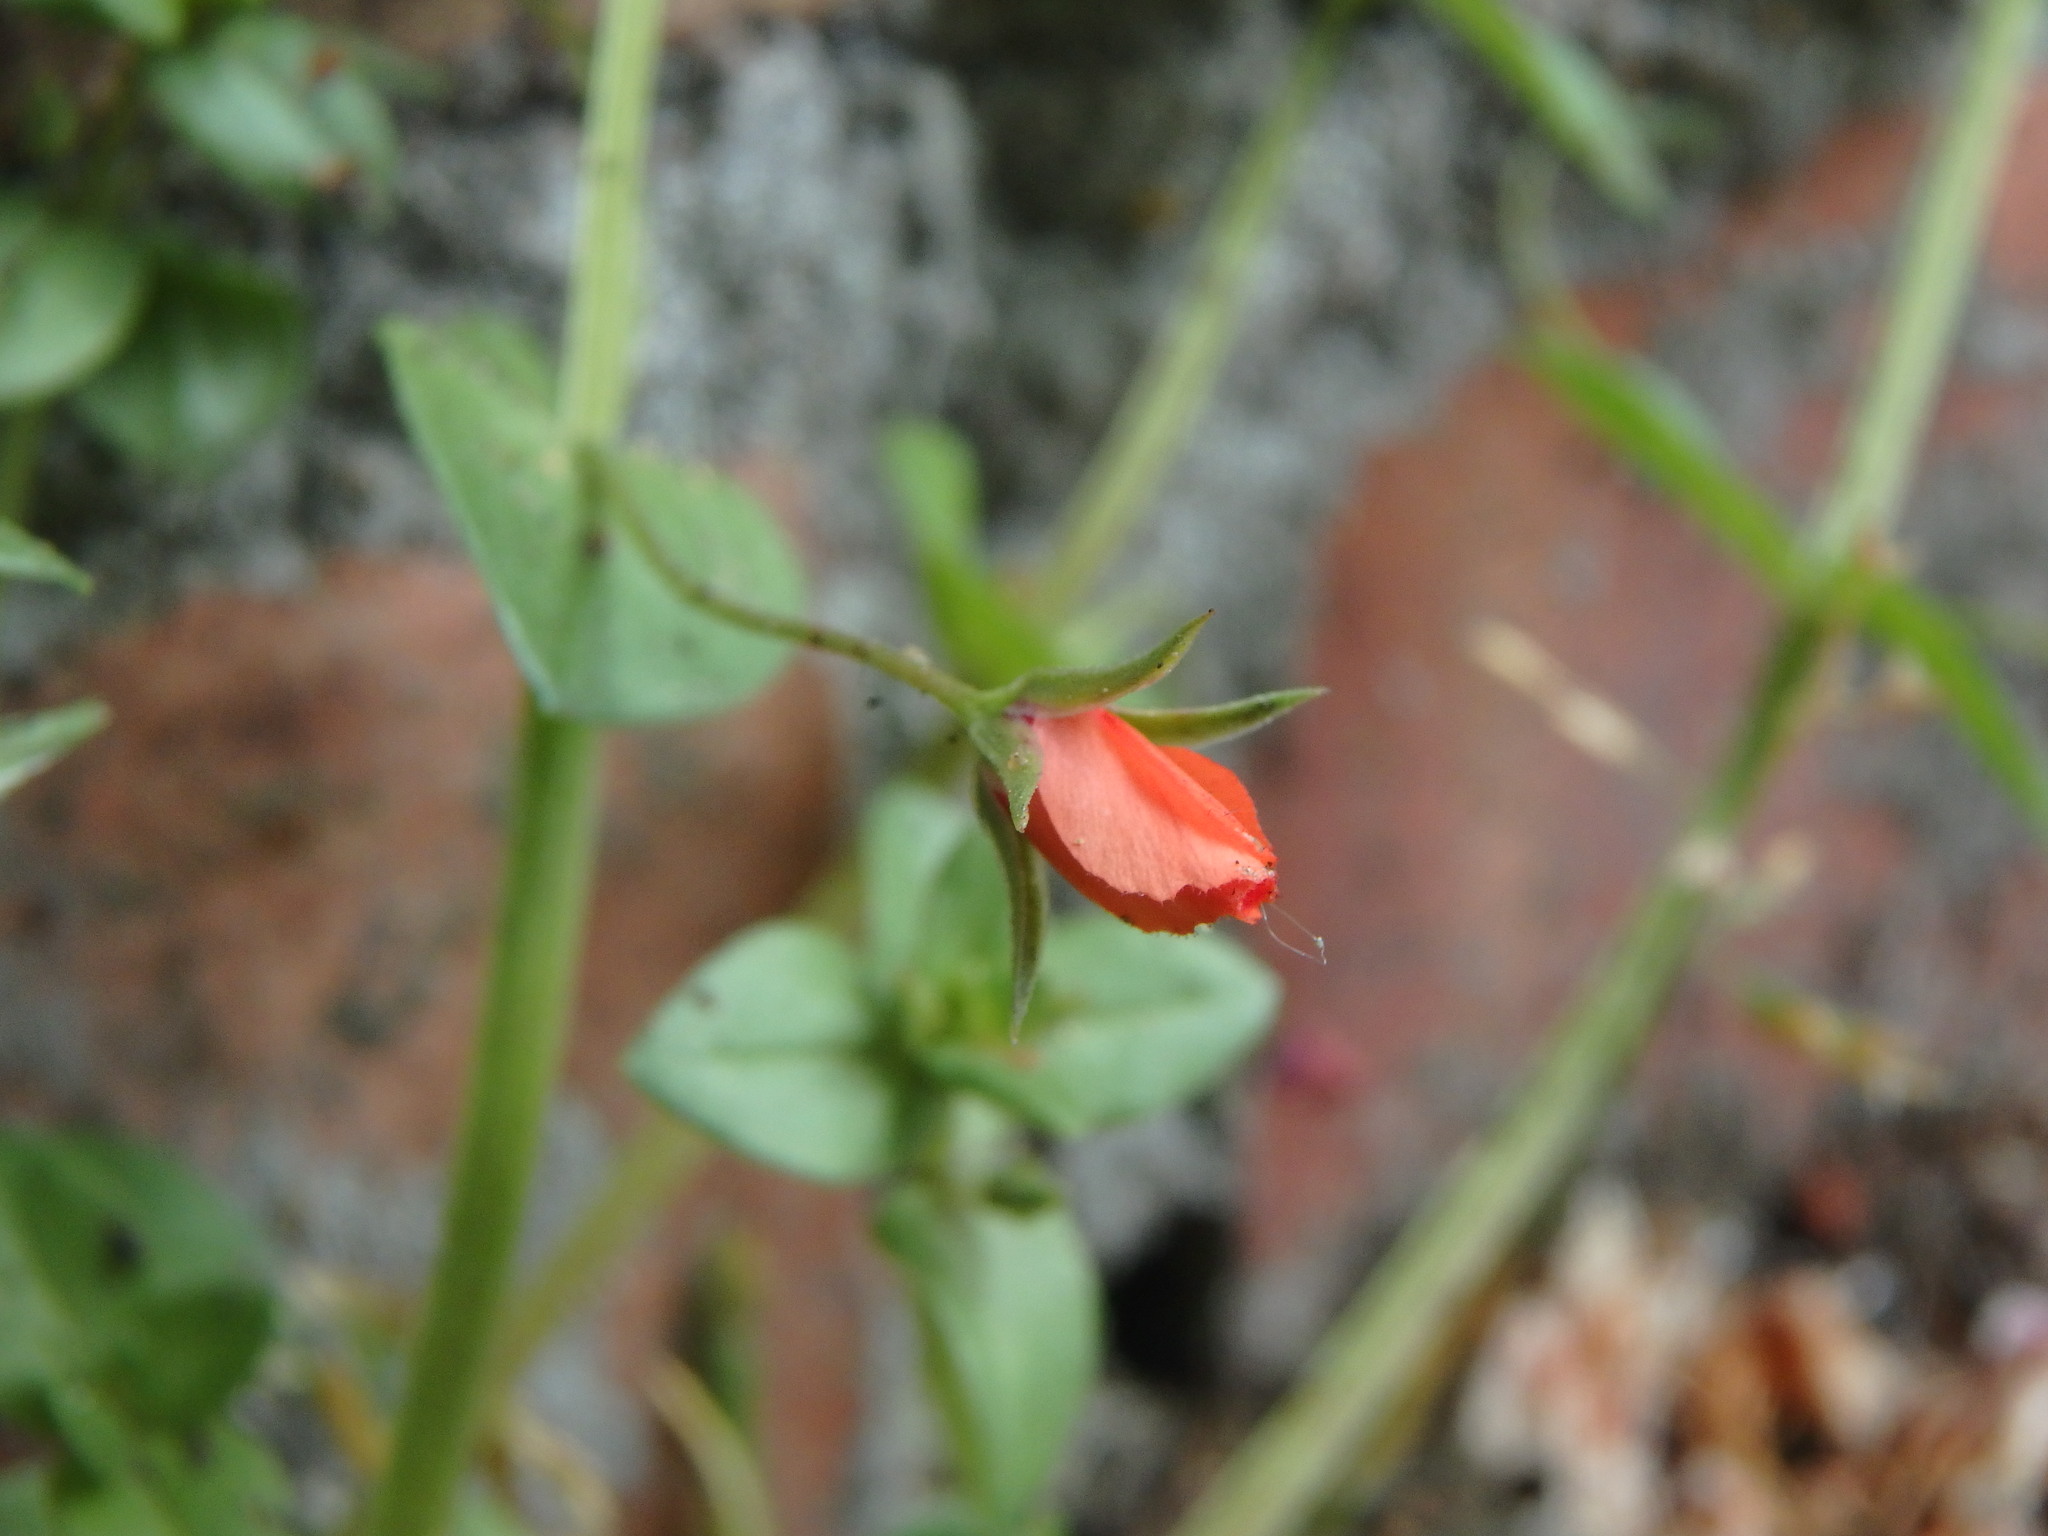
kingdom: Plantae
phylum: Tracheophyta
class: Magnoliopsida
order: Ericales
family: Primulaceae
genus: Lysimachia
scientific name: Lysimachia arvensis
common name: Scarlet pimpernel
